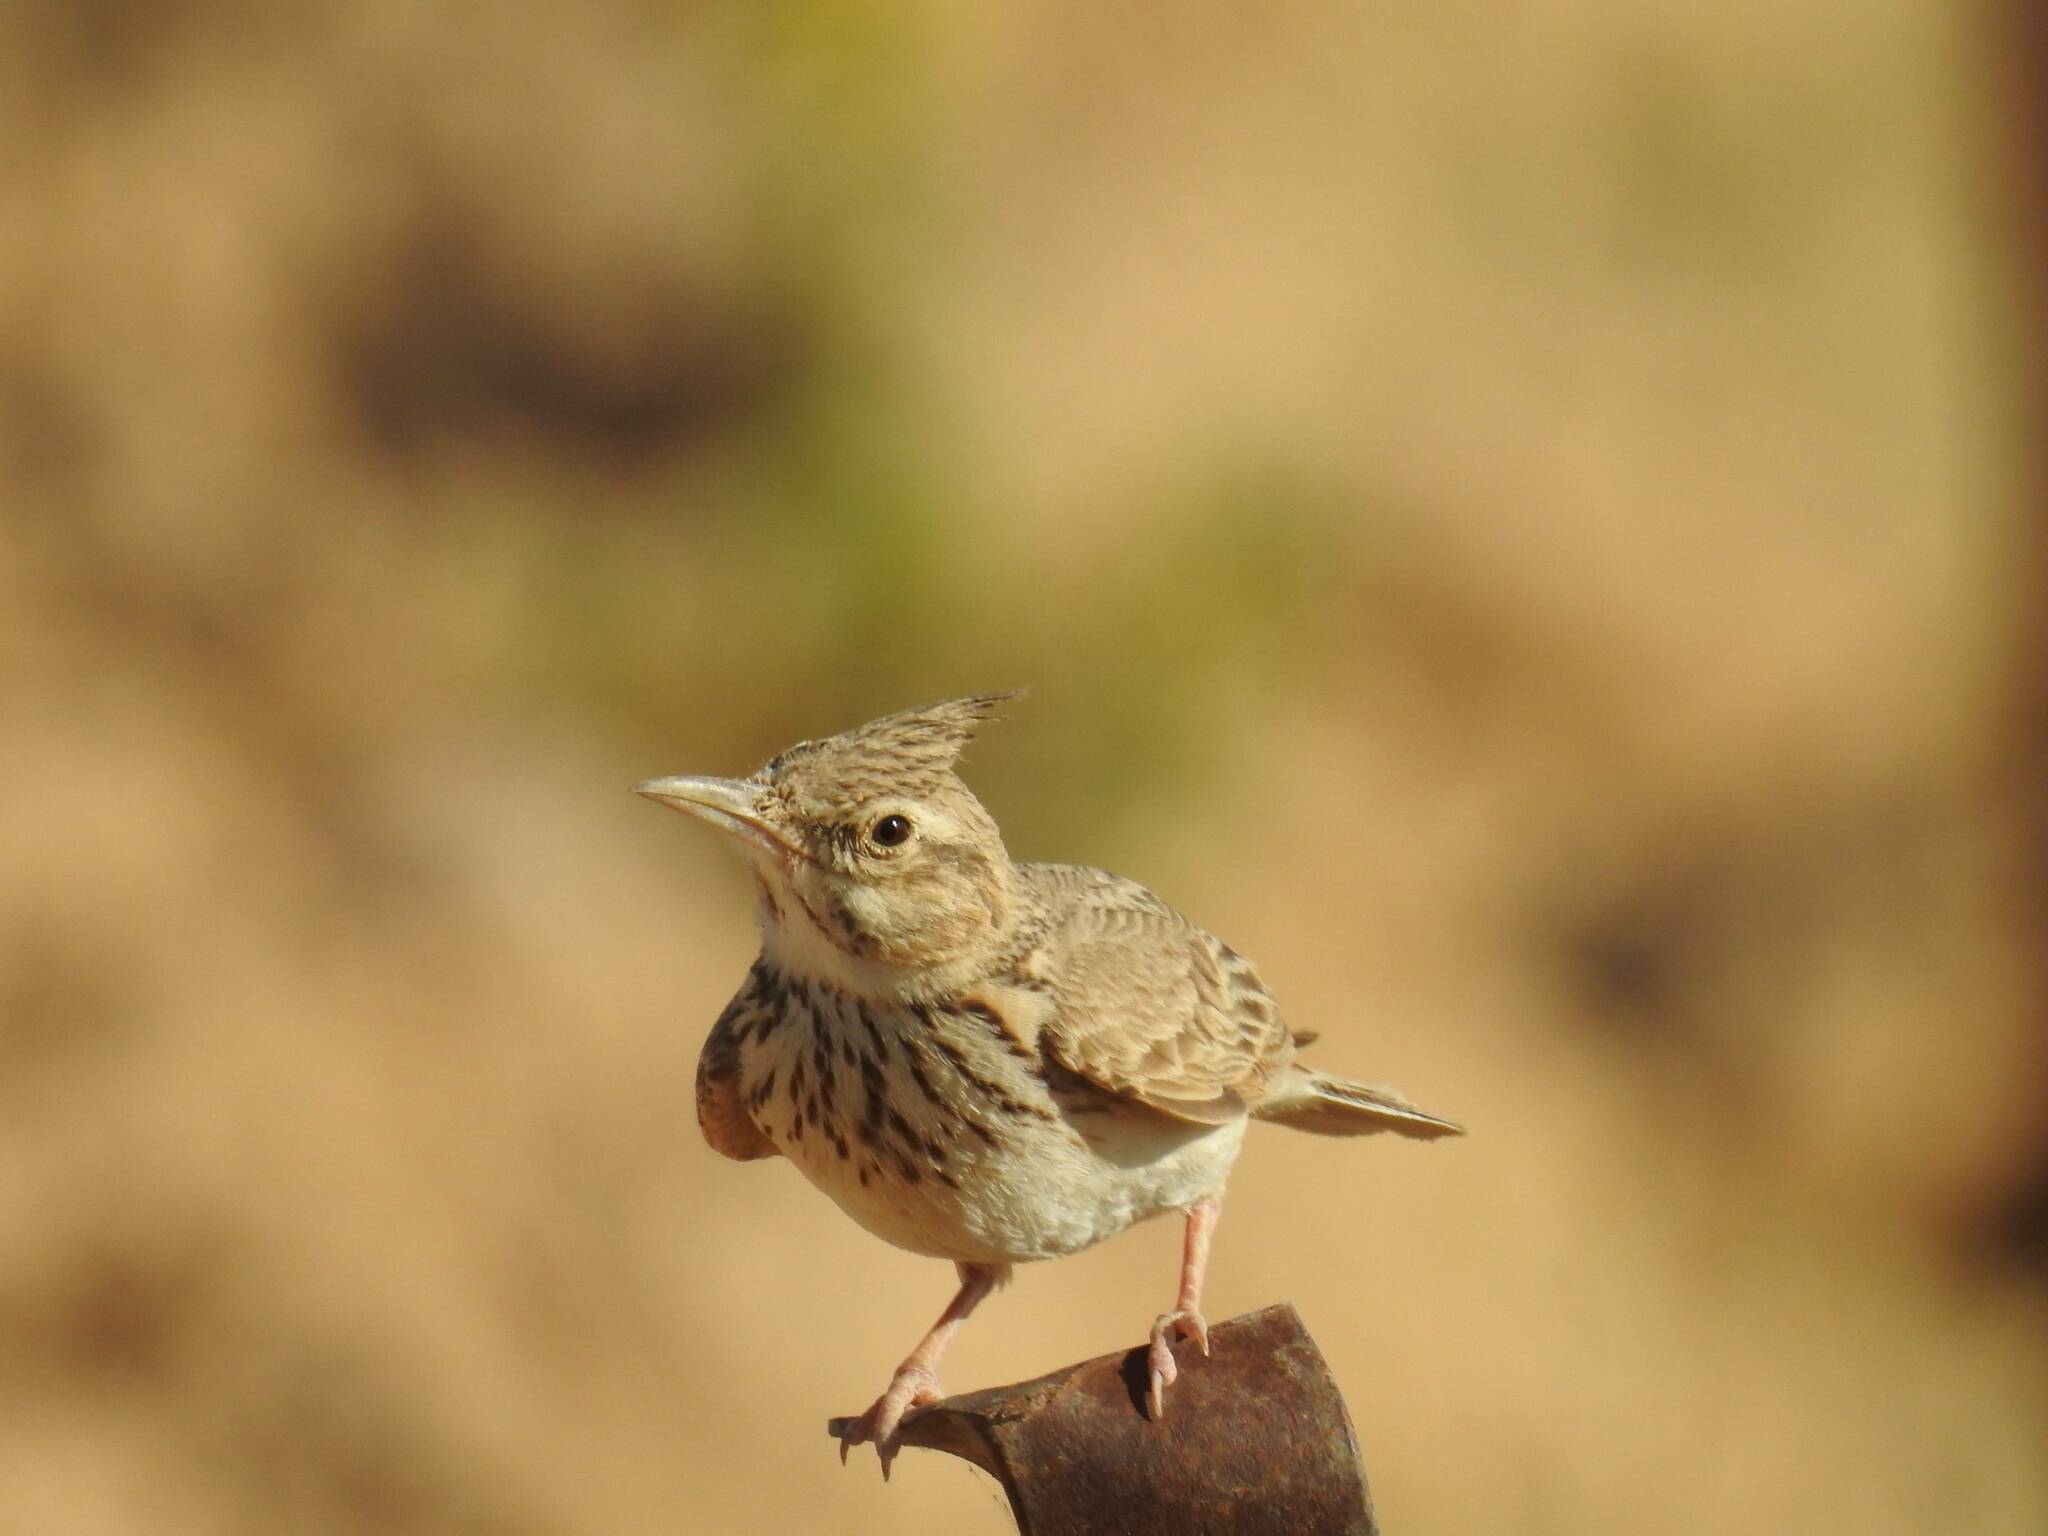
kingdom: Animalia
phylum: Chordata
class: Aves
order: Passeriformes
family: Alaudidae
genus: Galerida
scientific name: Galerida cristata
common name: Crested lark
